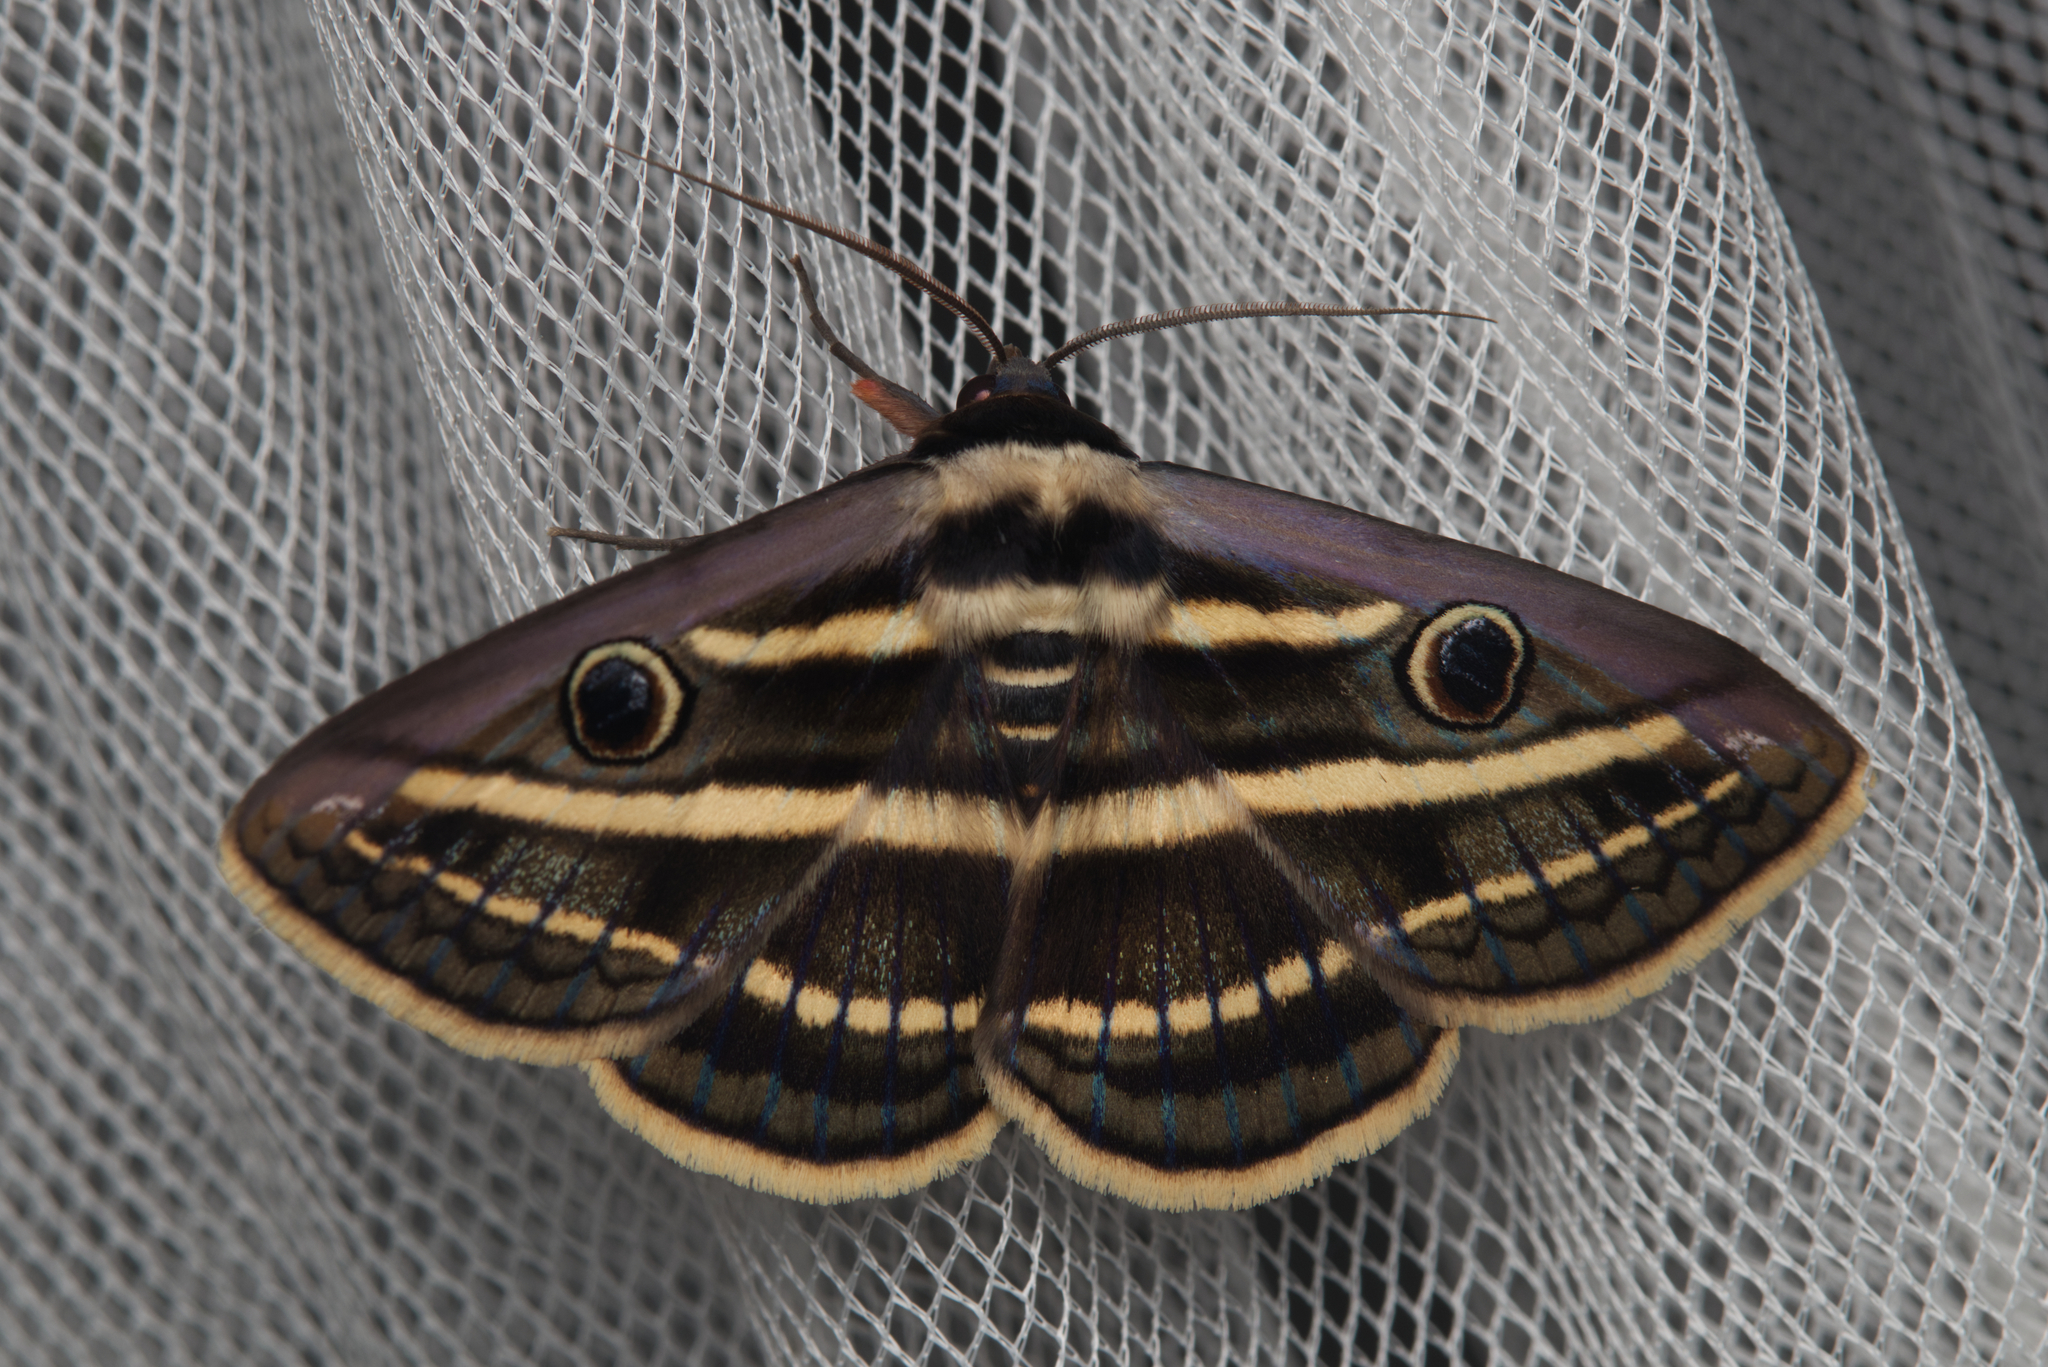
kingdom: Animalia
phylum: Arthropoda
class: Insecta
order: Lepidoptera
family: Erebidae
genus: Donuca
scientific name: Donuca orbigera
